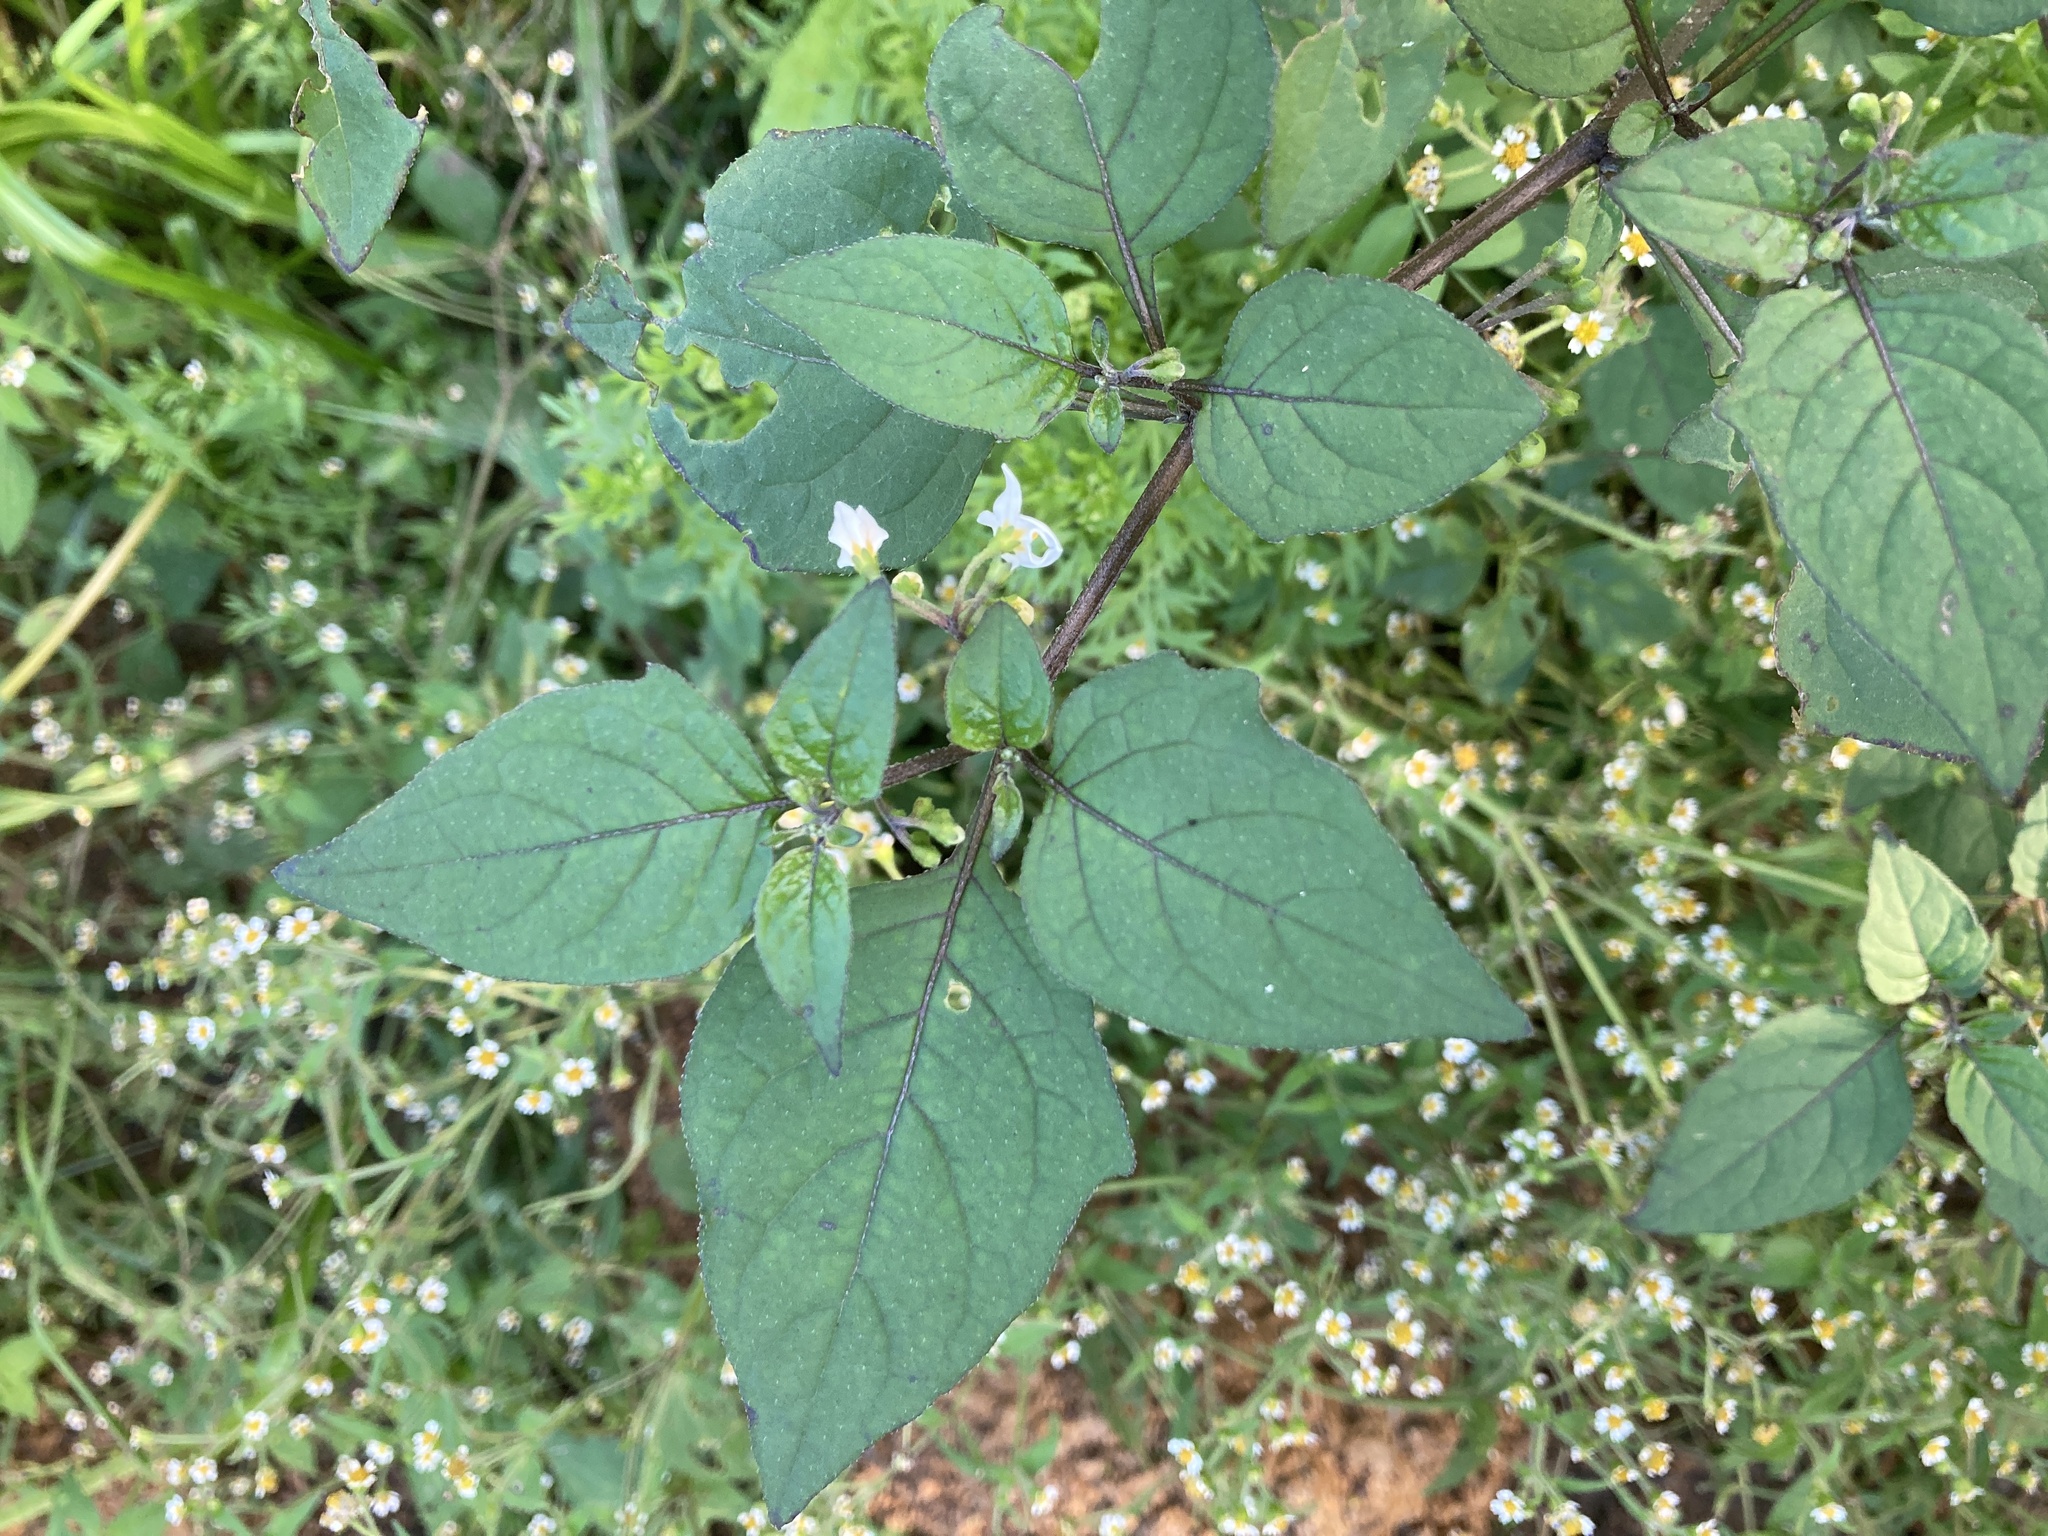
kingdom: Plantae
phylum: Tracheophyta
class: Magnoliopsida
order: Solanales
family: Solanaceae
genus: Solanum
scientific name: Solanum nigrum
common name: Black nightshade
